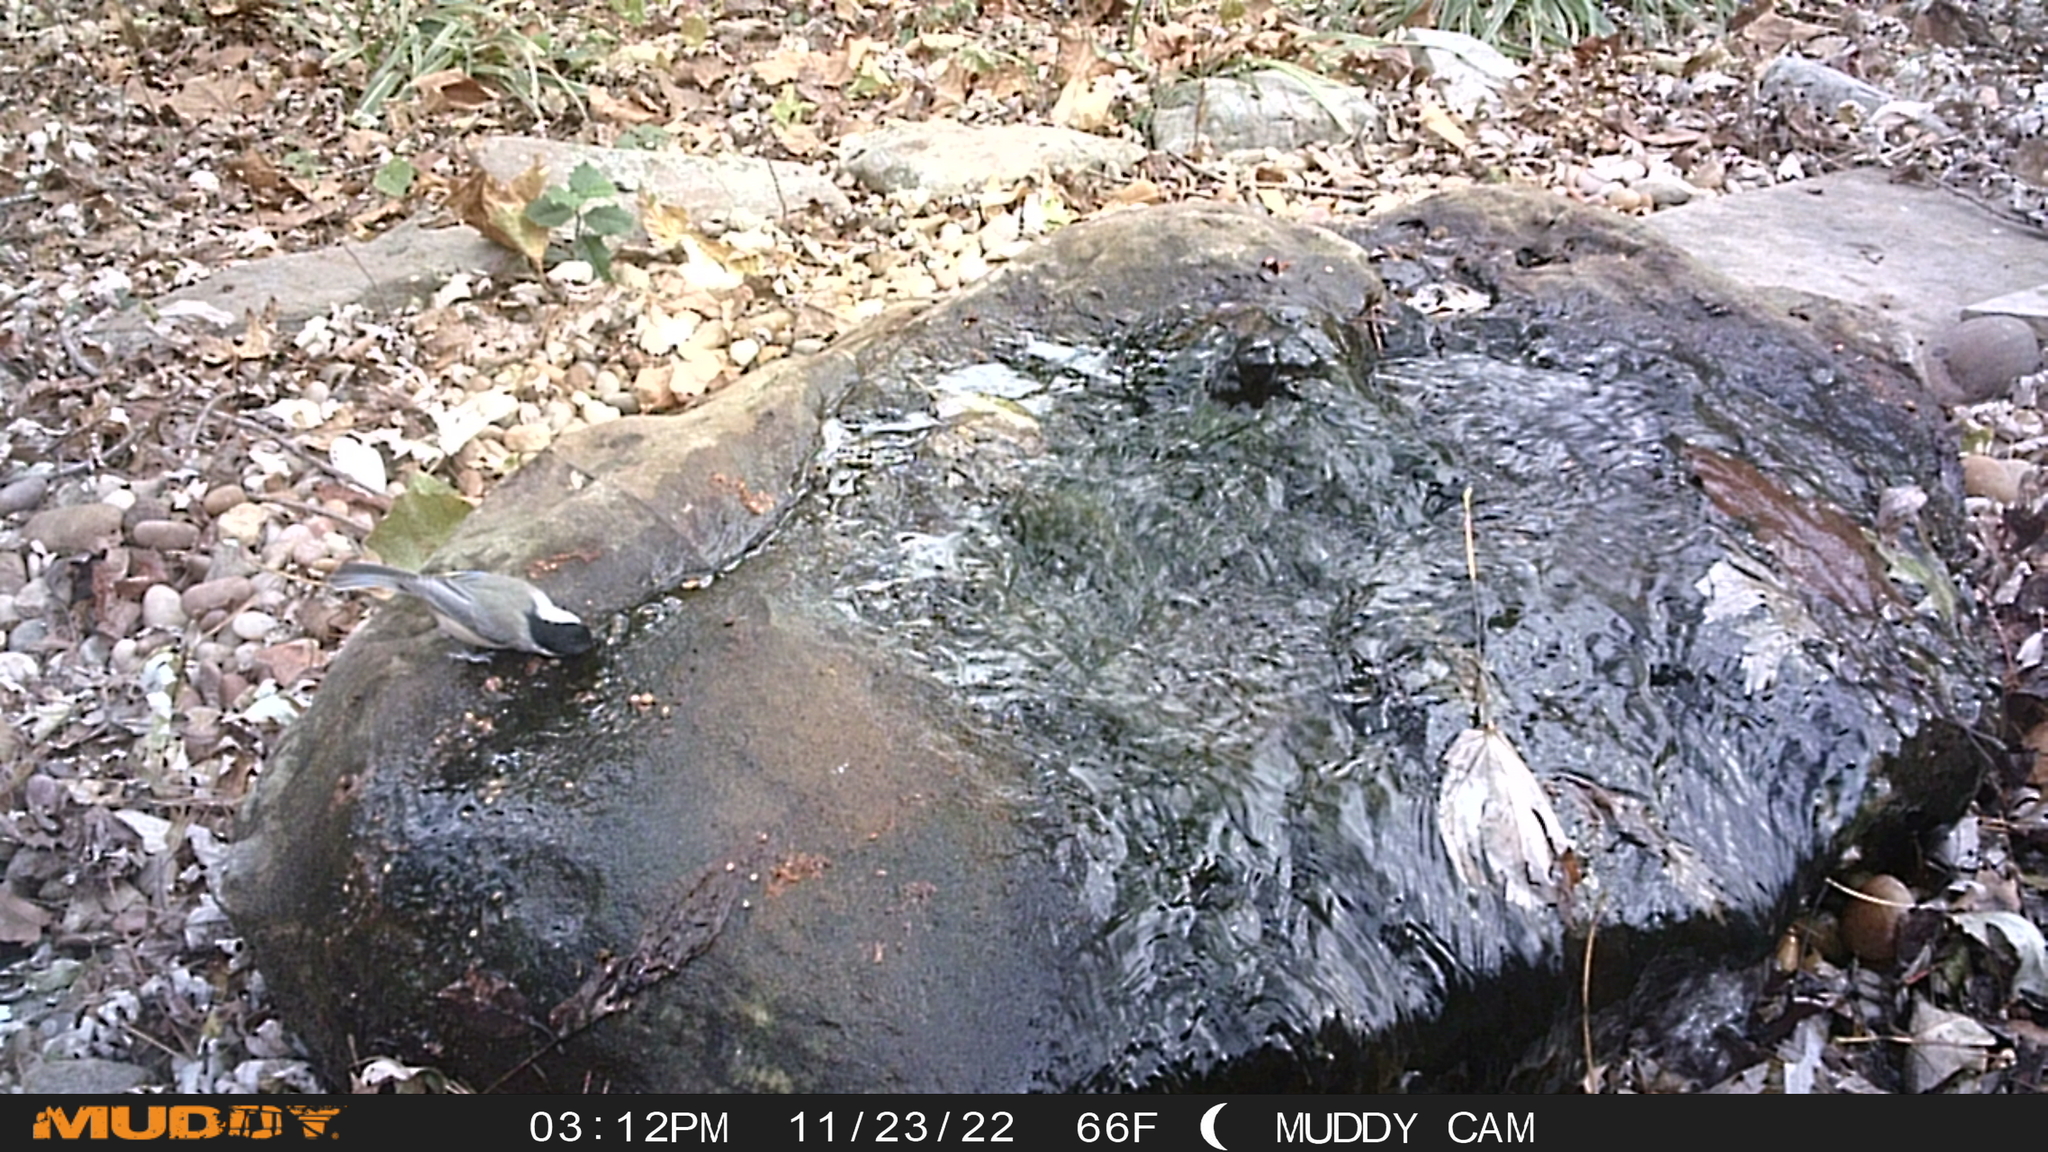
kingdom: Animalia
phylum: Chordata
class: Aves
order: Passeriformes
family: Paridae
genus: Poecile
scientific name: Poecile carolinensis
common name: Carolina chickadee
